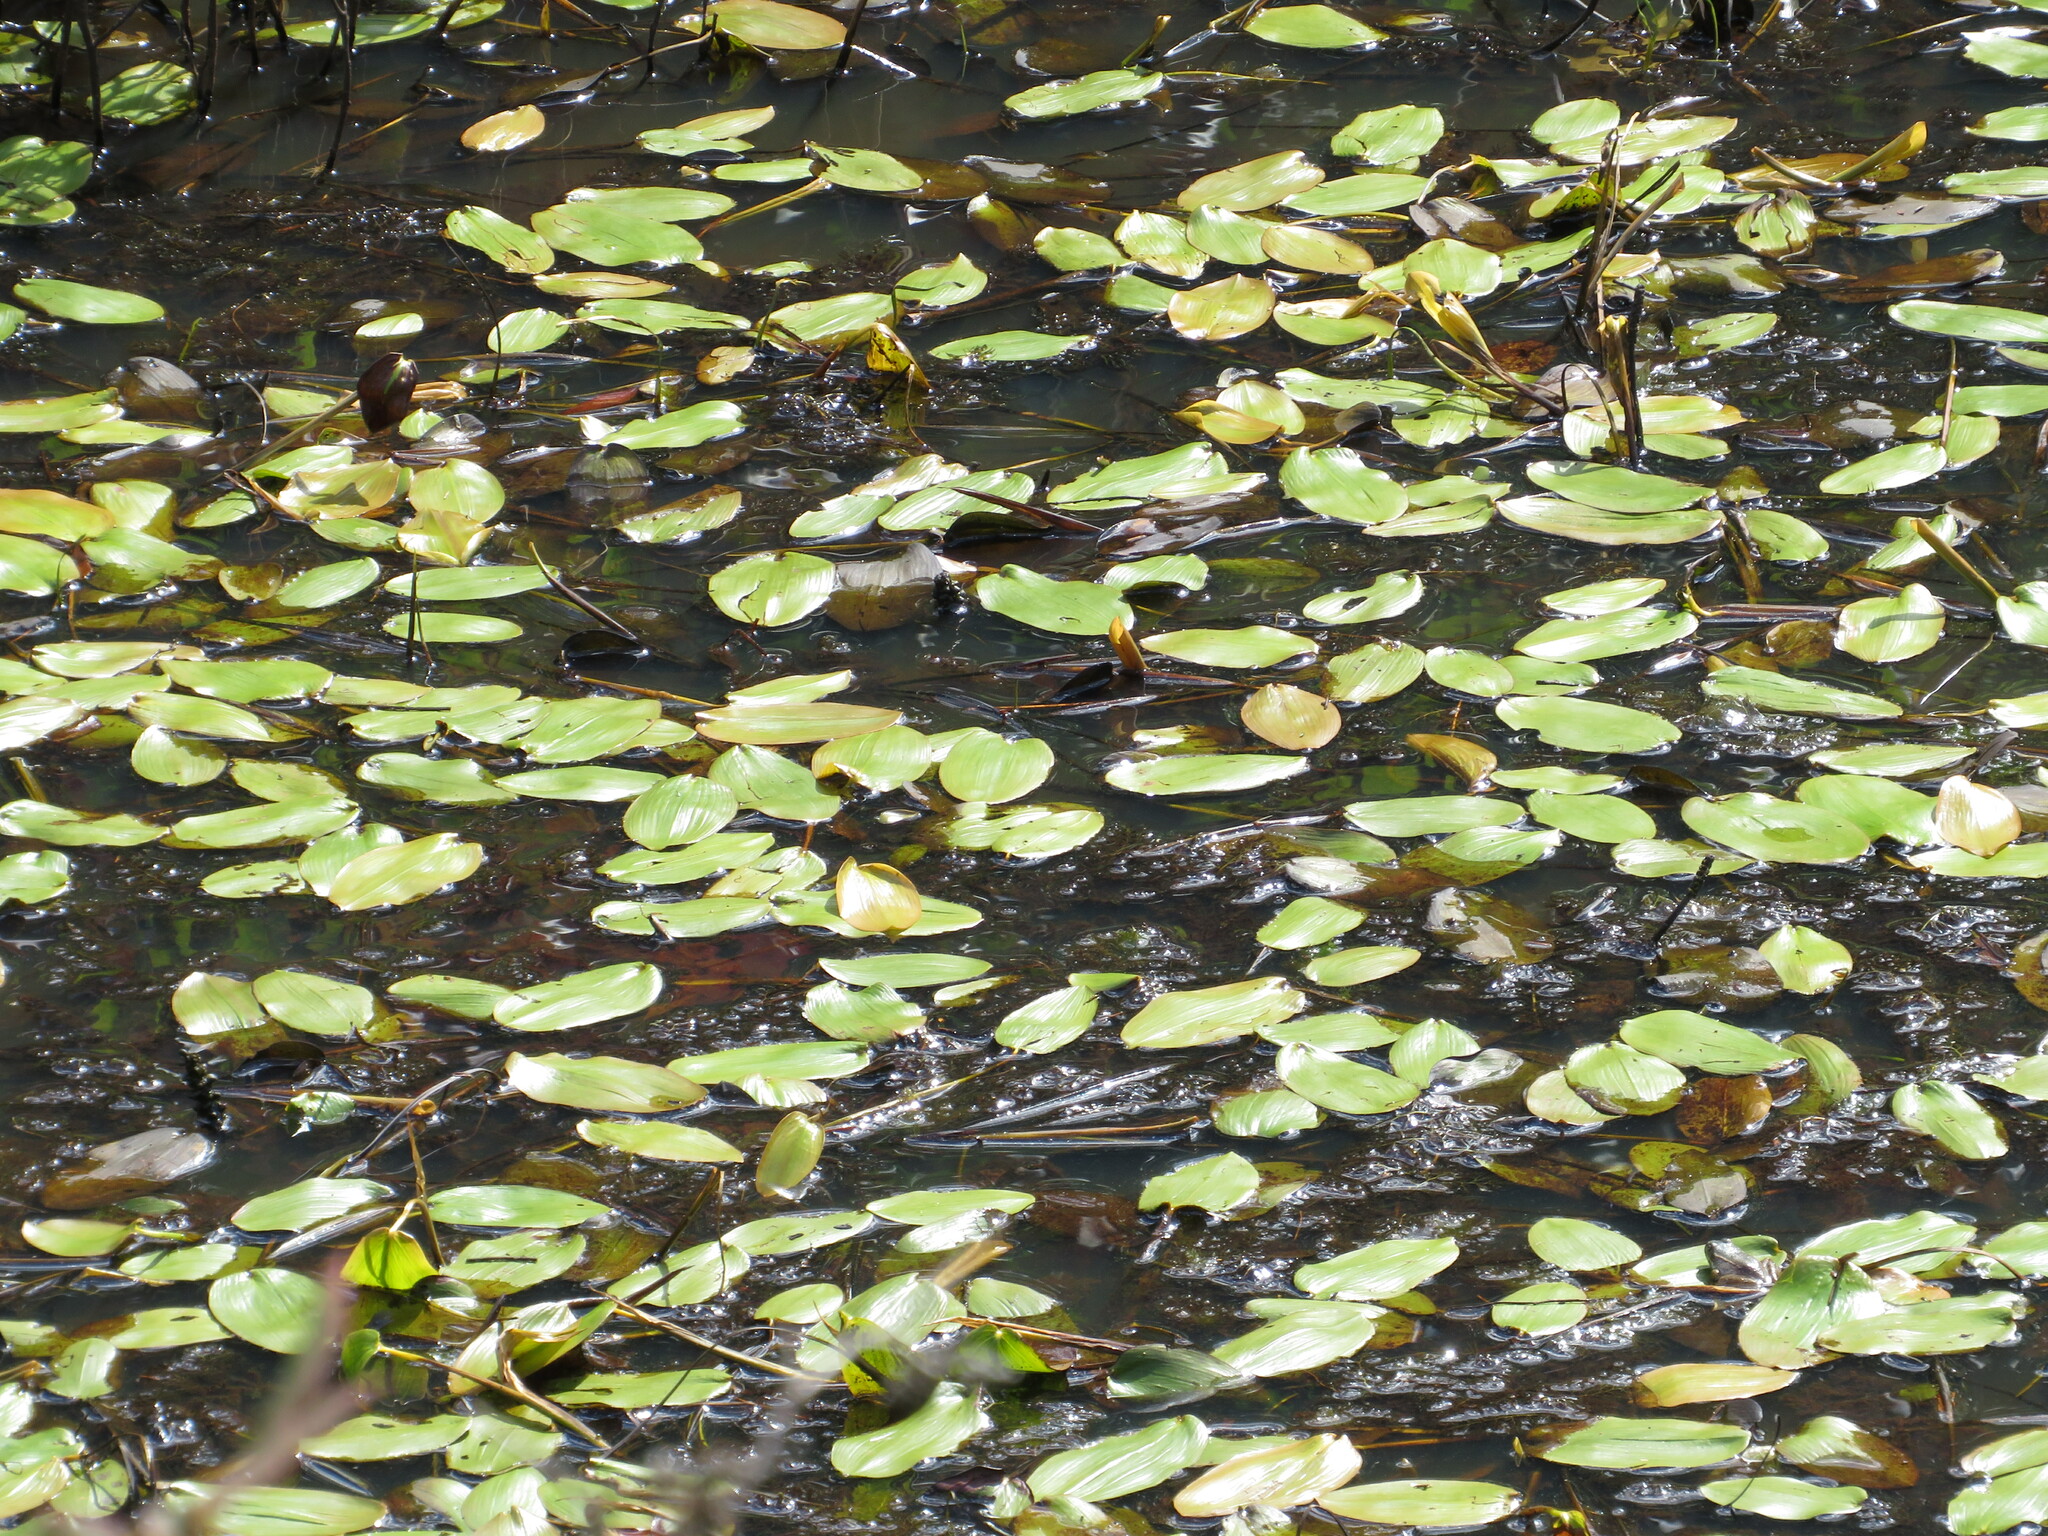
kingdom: Plantae
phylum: Tracheophyta
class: Liliopsida
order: Alismatales
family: Potamogetonaceae
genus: Potamogeton
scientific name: Potamogeton natans
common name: Broad-leaved pondweed
